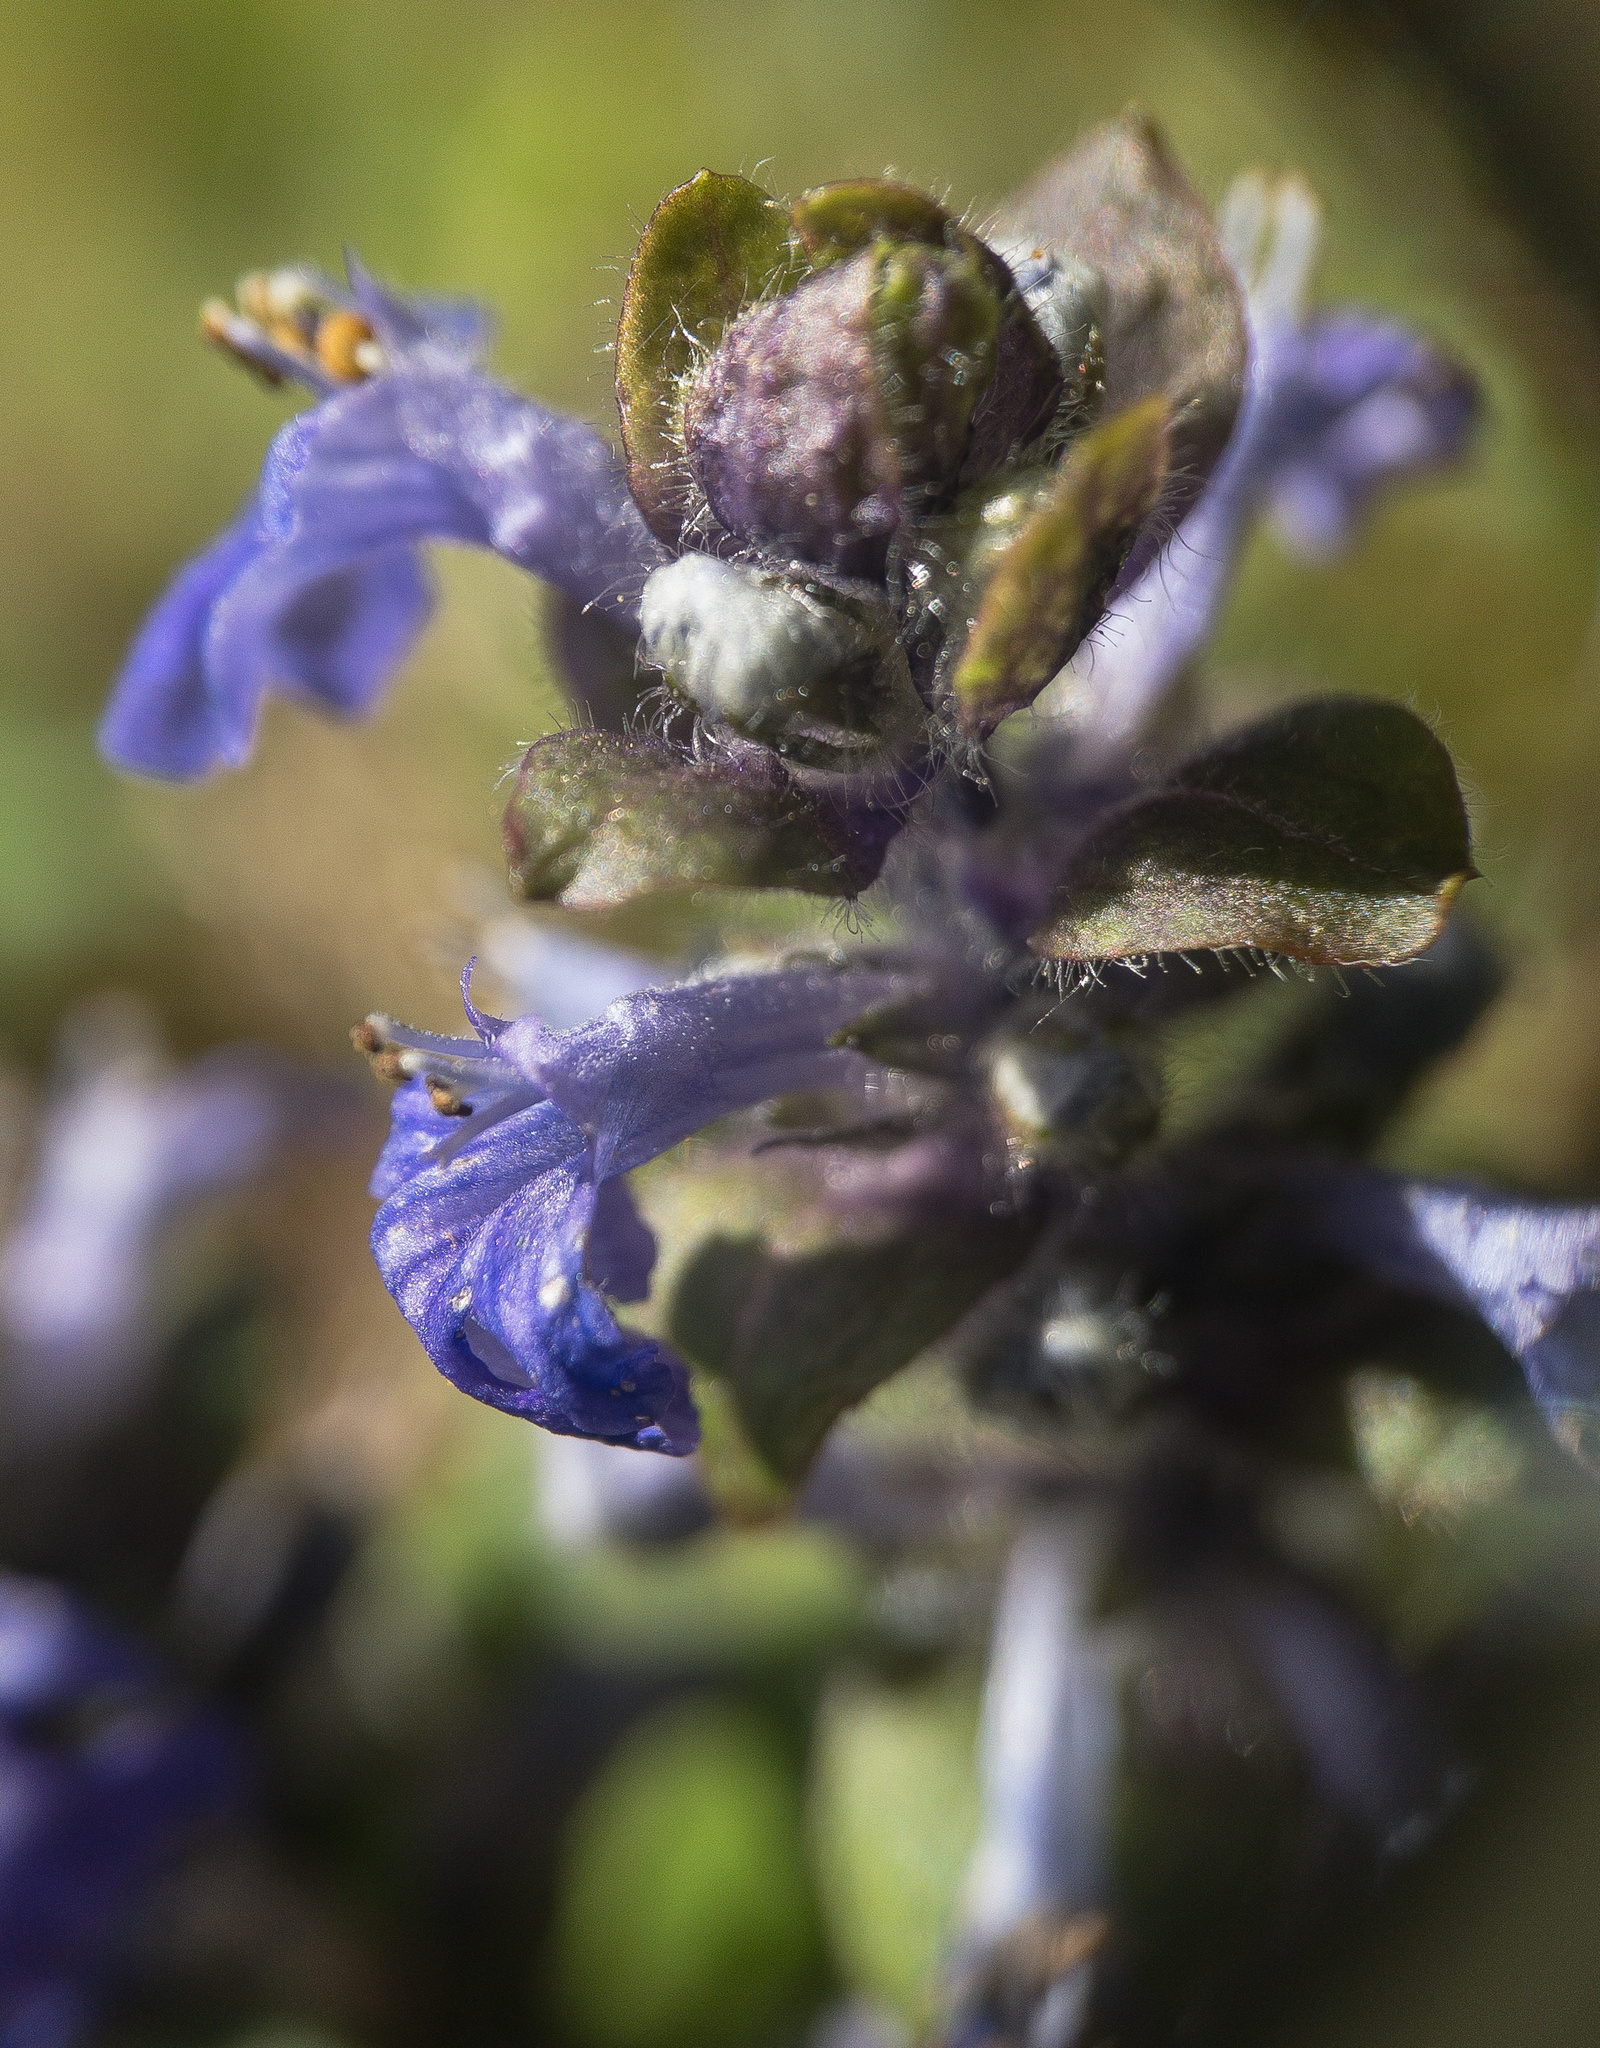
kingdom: Plantae
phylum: Tracheophyta
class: Magnoliopsida
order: Lamiales
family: Lamiaceae
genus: Ajuga
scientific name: Ajuga reptans
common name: Bugle
